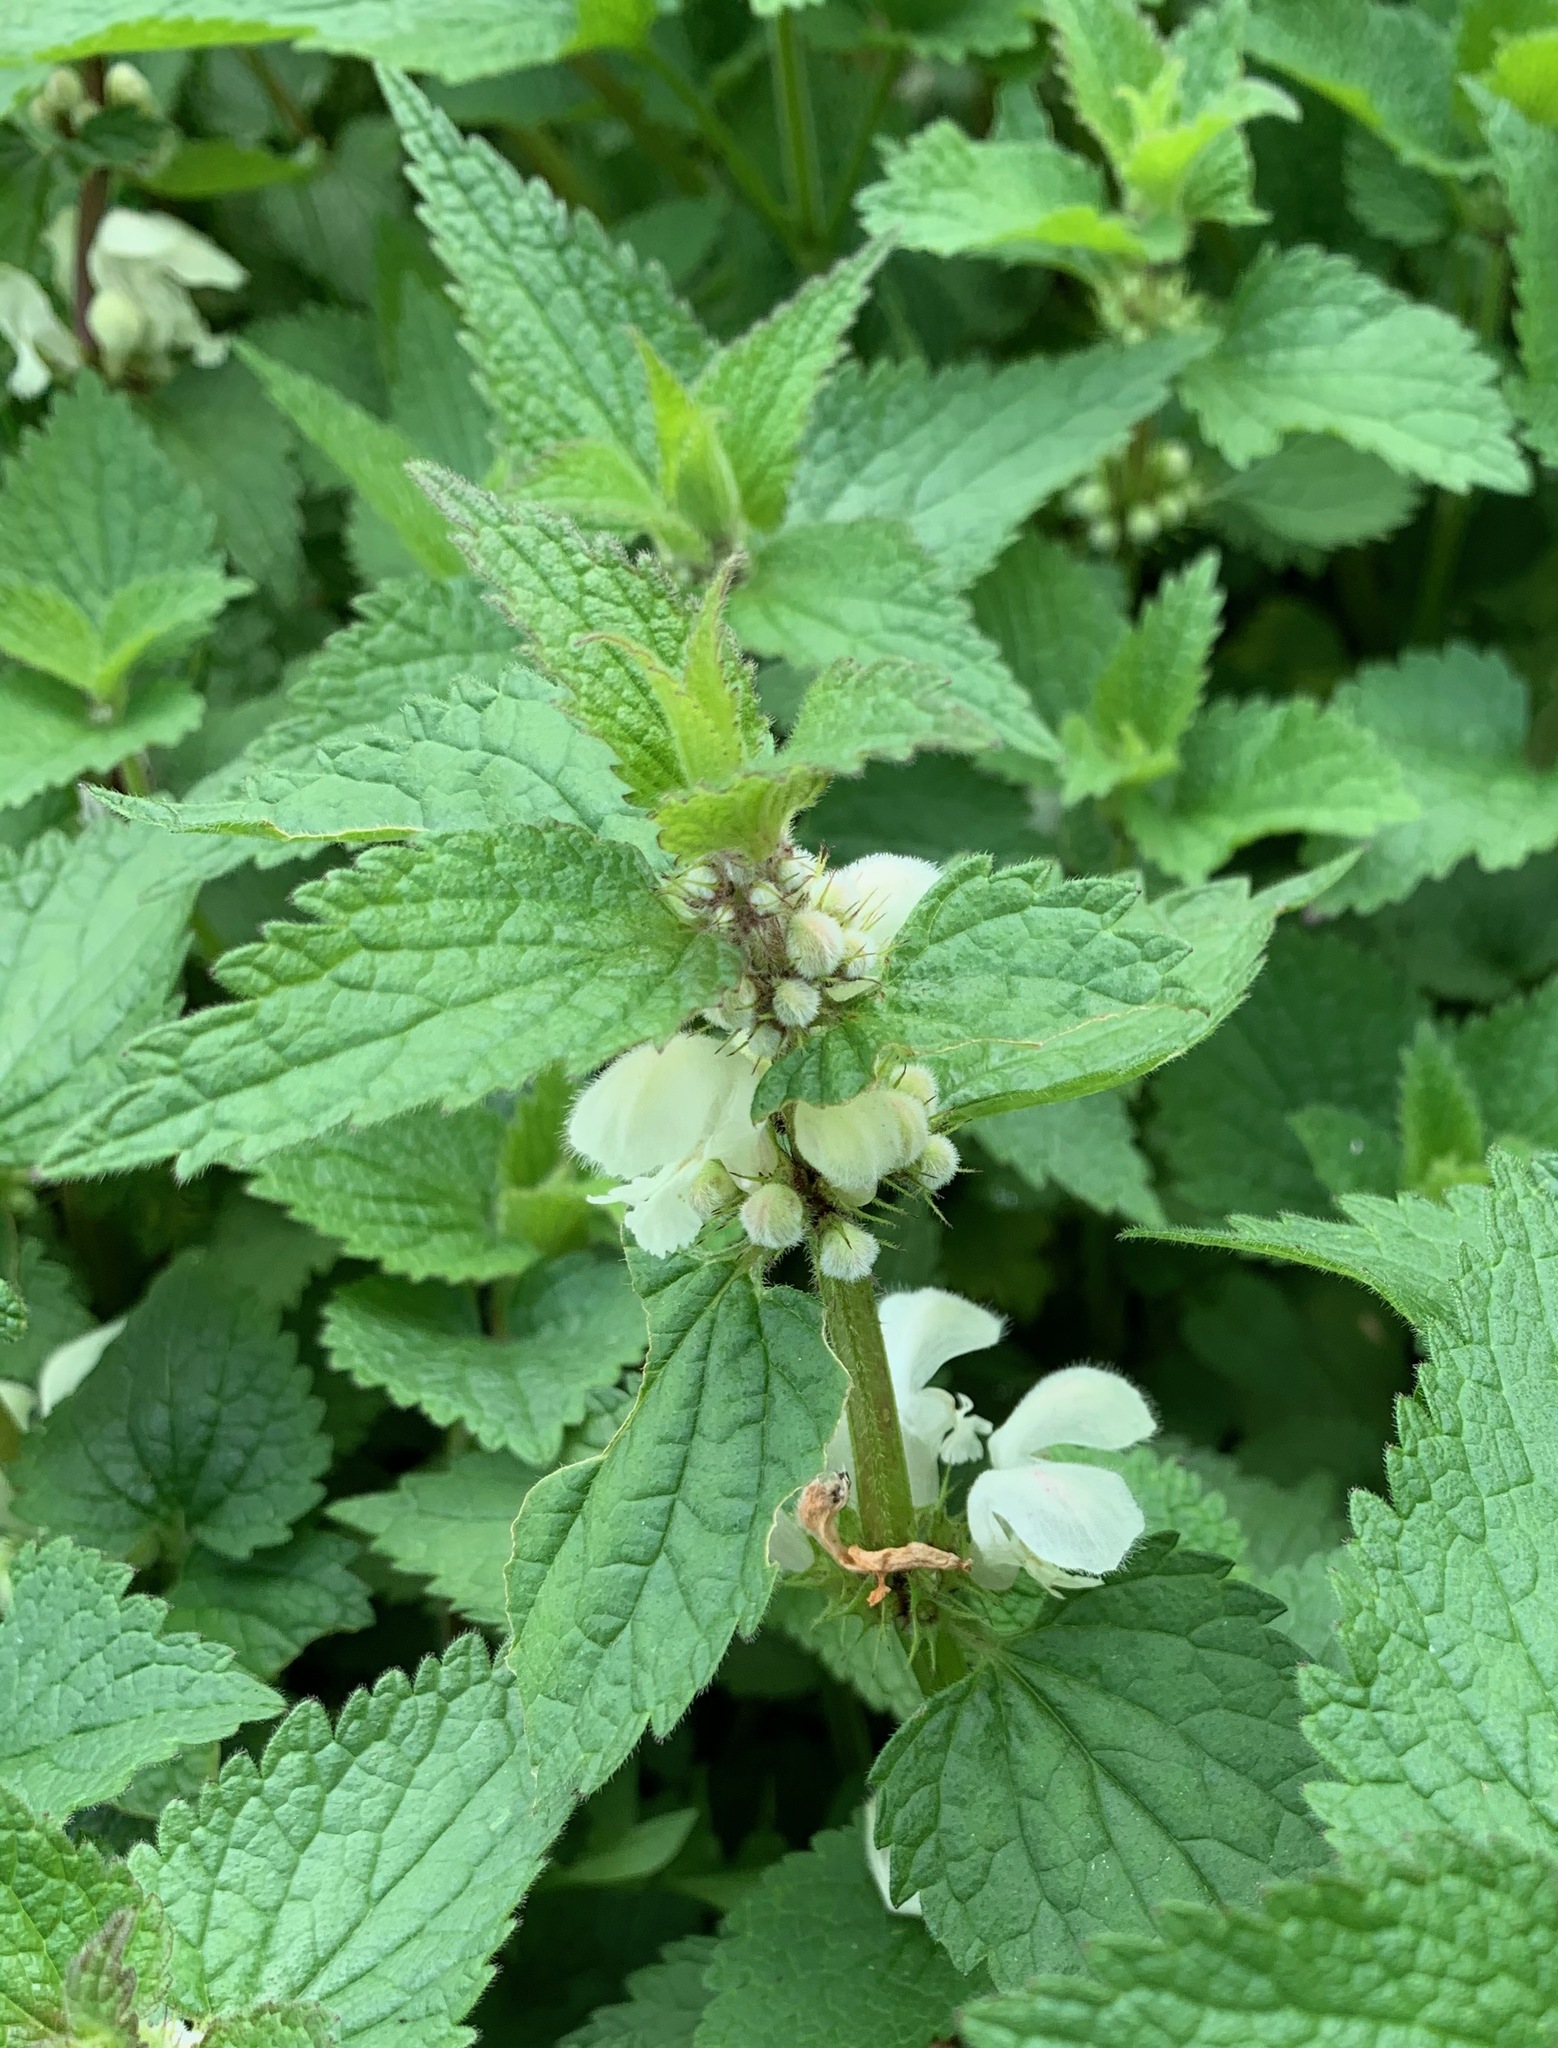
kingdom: Plantae
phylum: Tracheophyta
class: Magnoliopsida
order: Lamiales
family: Lamiaceae
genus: Lamium
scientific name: Lamium album
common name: White dead-nettle
